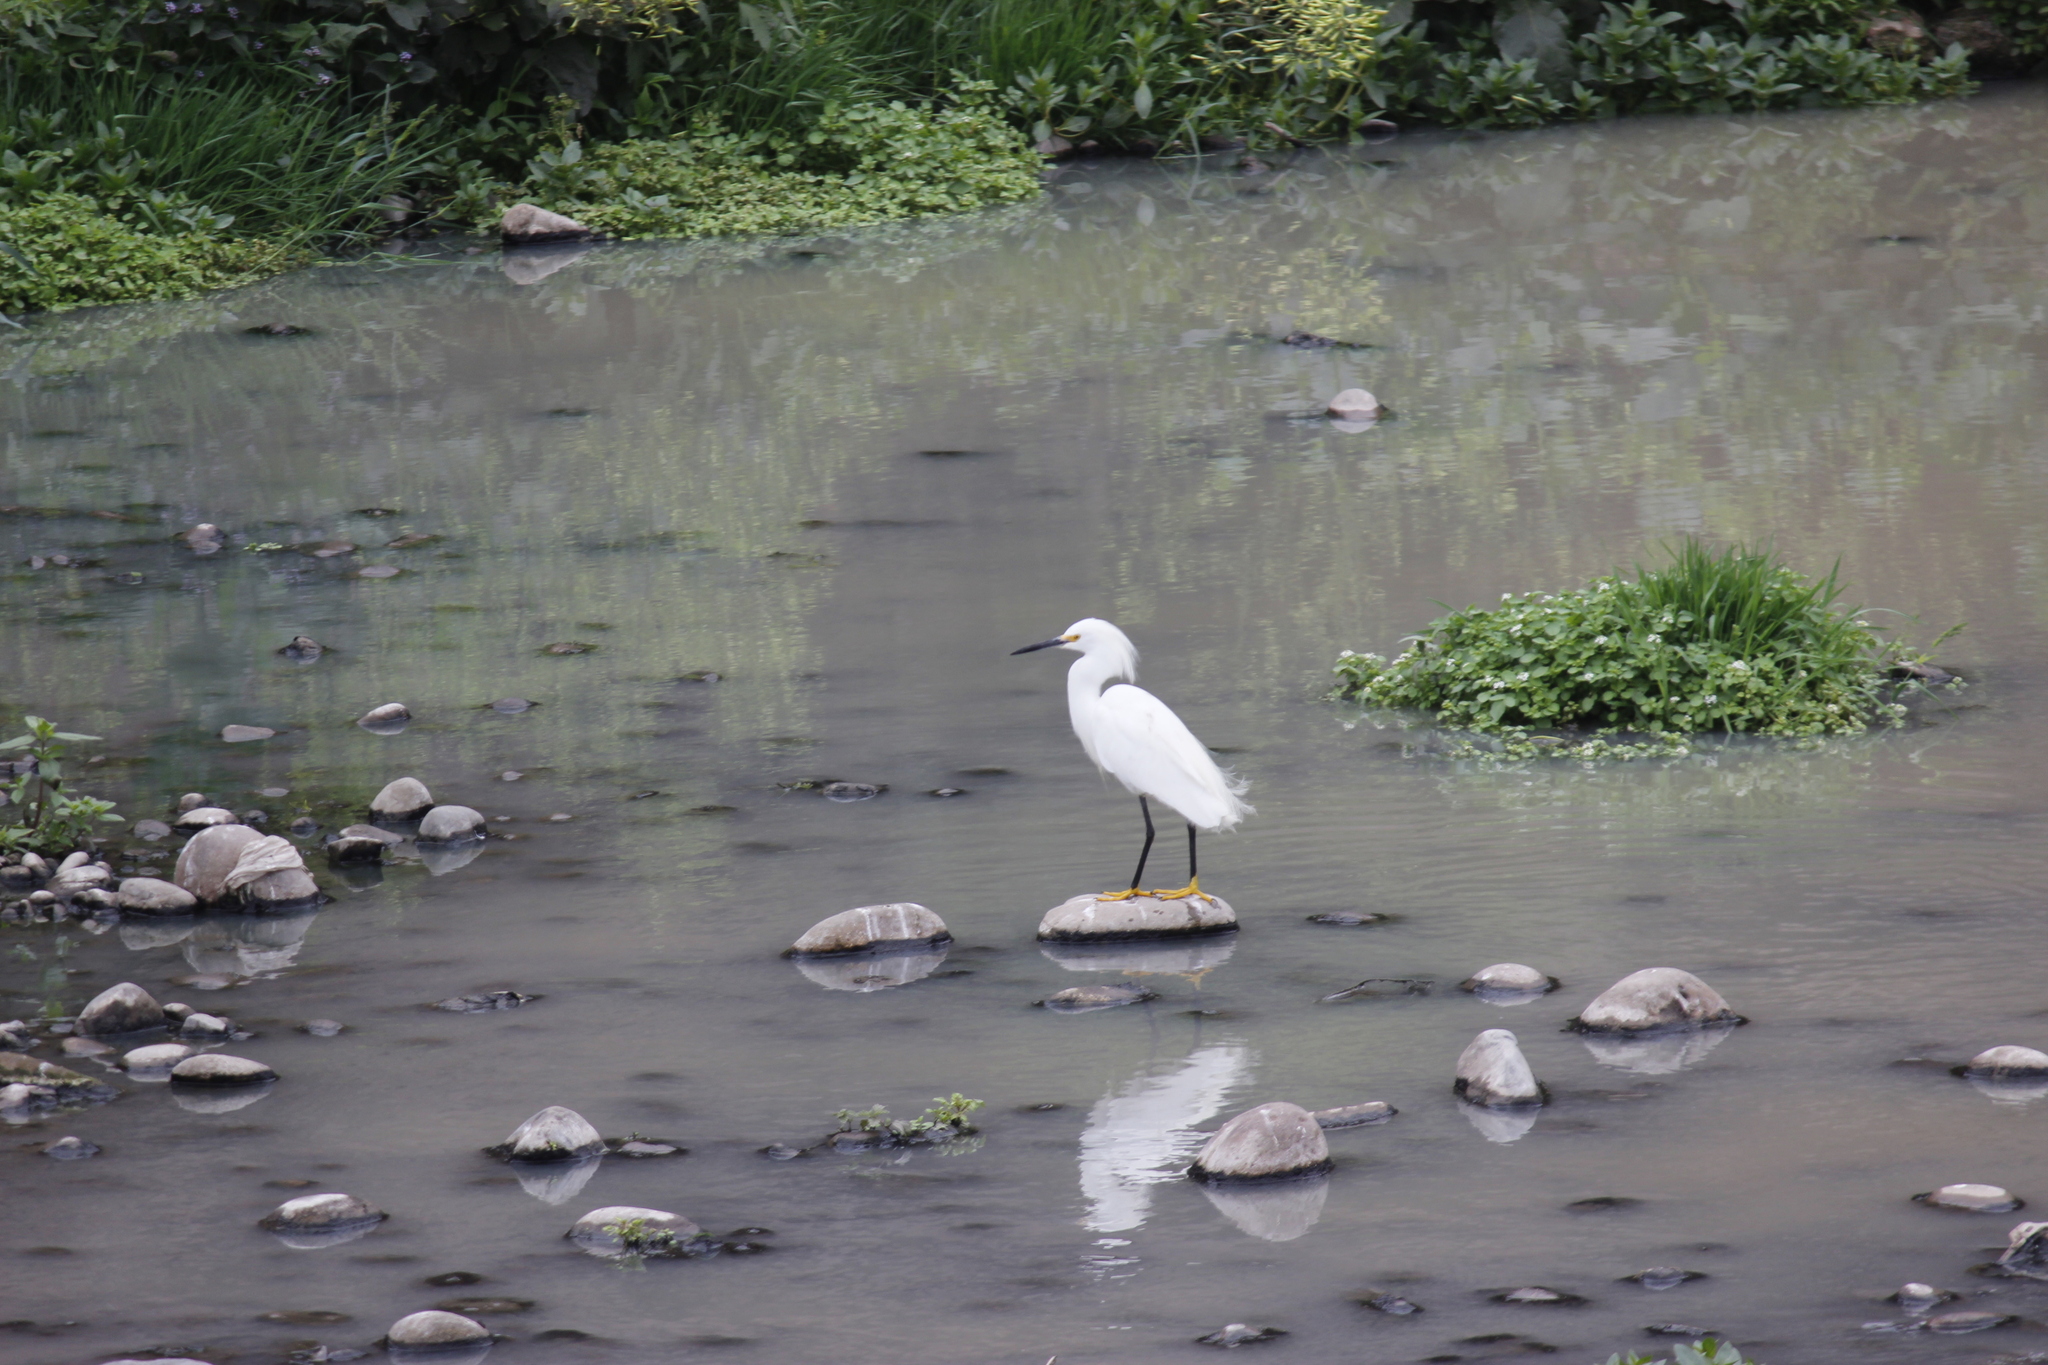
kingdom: Animalia
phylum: Chordata
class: Aves
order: Pelecaniformes
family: Ardeidae
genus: Egretta
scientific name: Egretta thula
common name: Snowy egret
